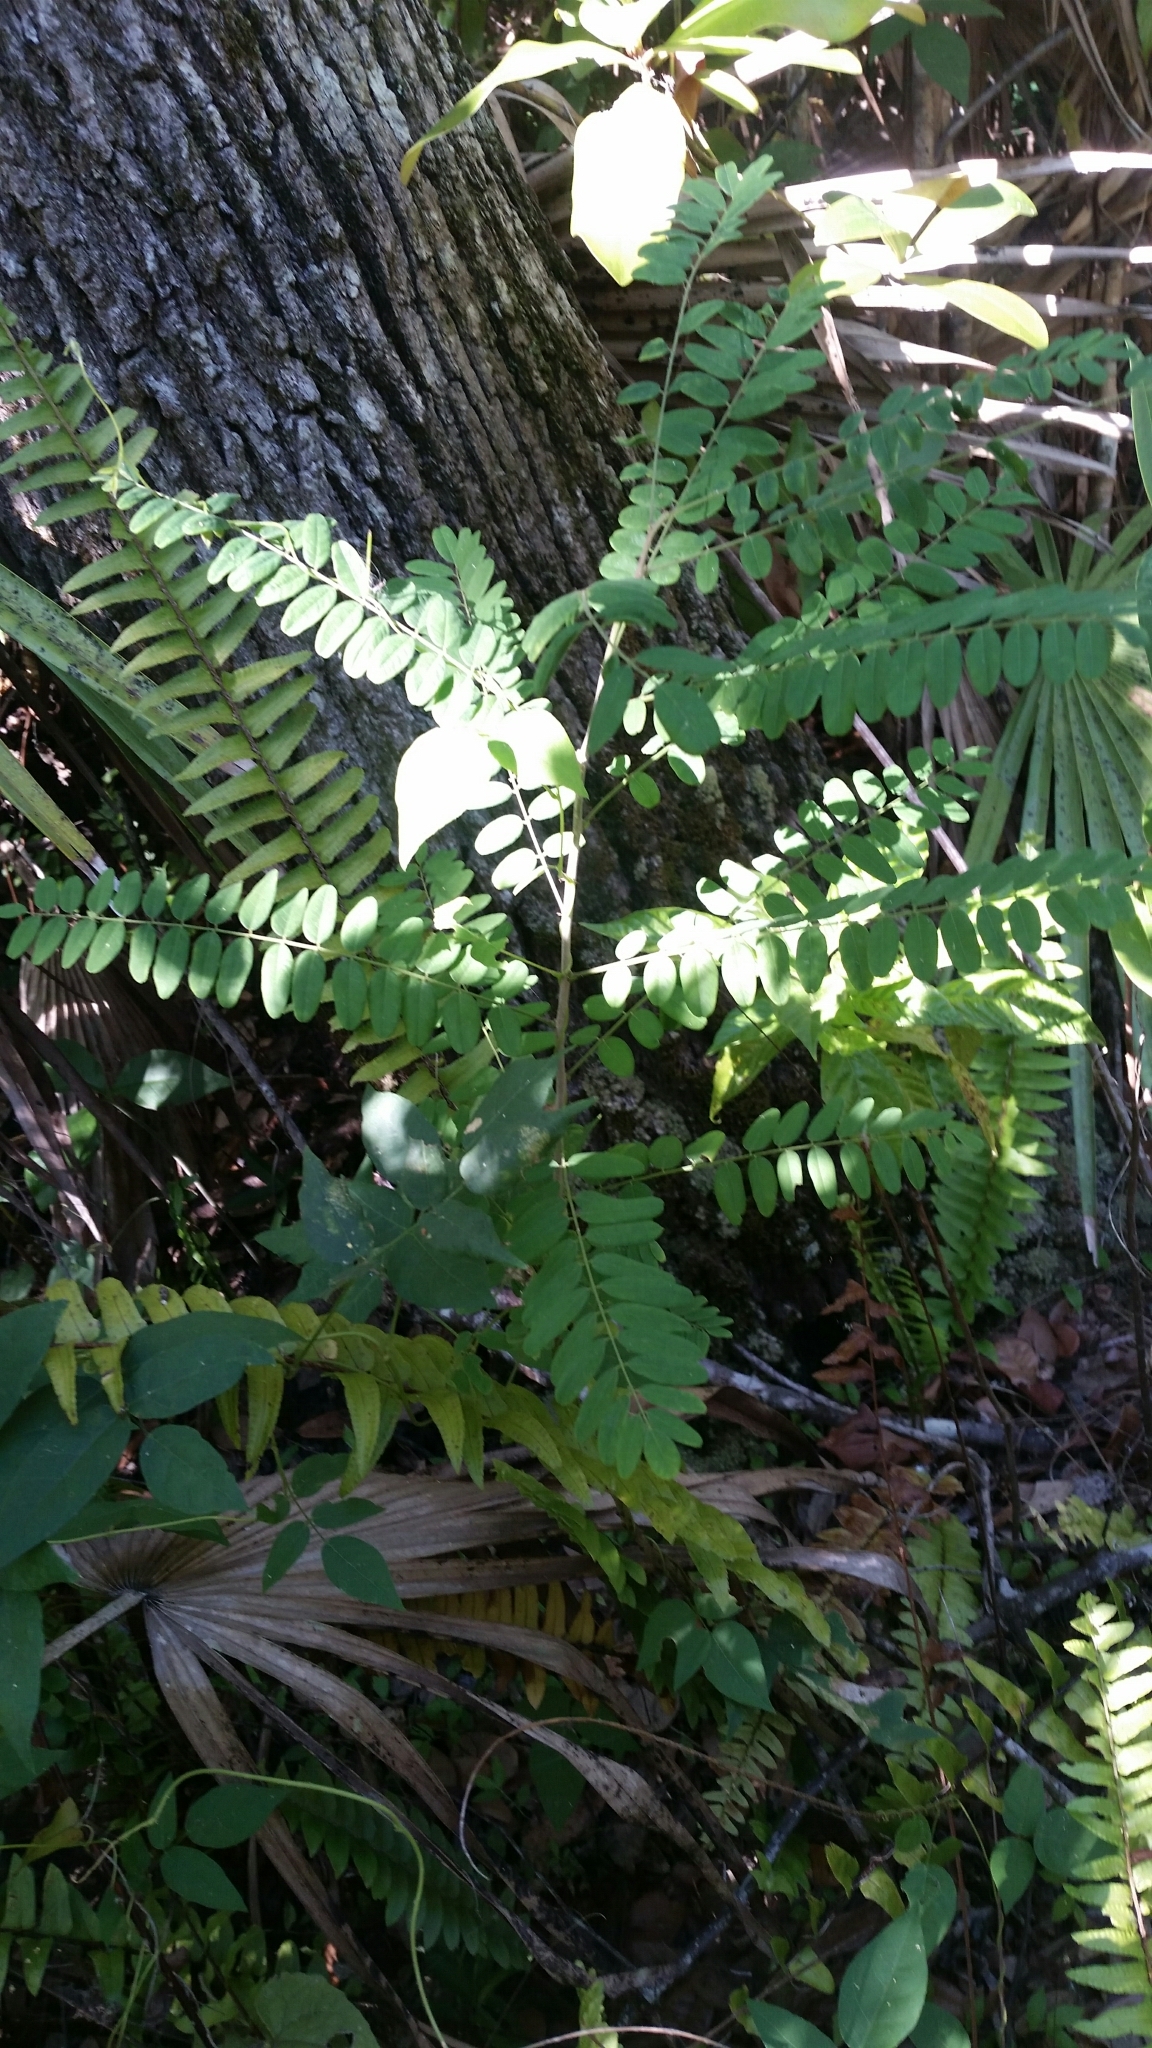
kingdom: Plantae
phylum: Tracheophyta
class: Magnoliopsida
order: Fabales
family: Fabaceae
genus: Amorpha
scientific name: Amorpha fruticosa
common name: False indigo
